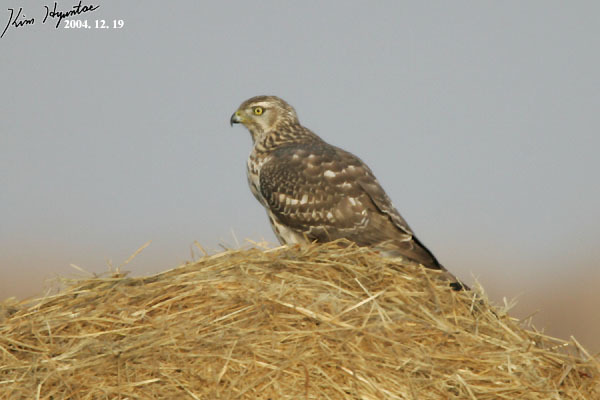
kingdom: Animalia
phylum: Chordata
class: Aves
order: Accipitriformes
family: Accipitridae
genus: Accipiter
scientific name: Accipiter gentilis
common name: Northern goshawk
